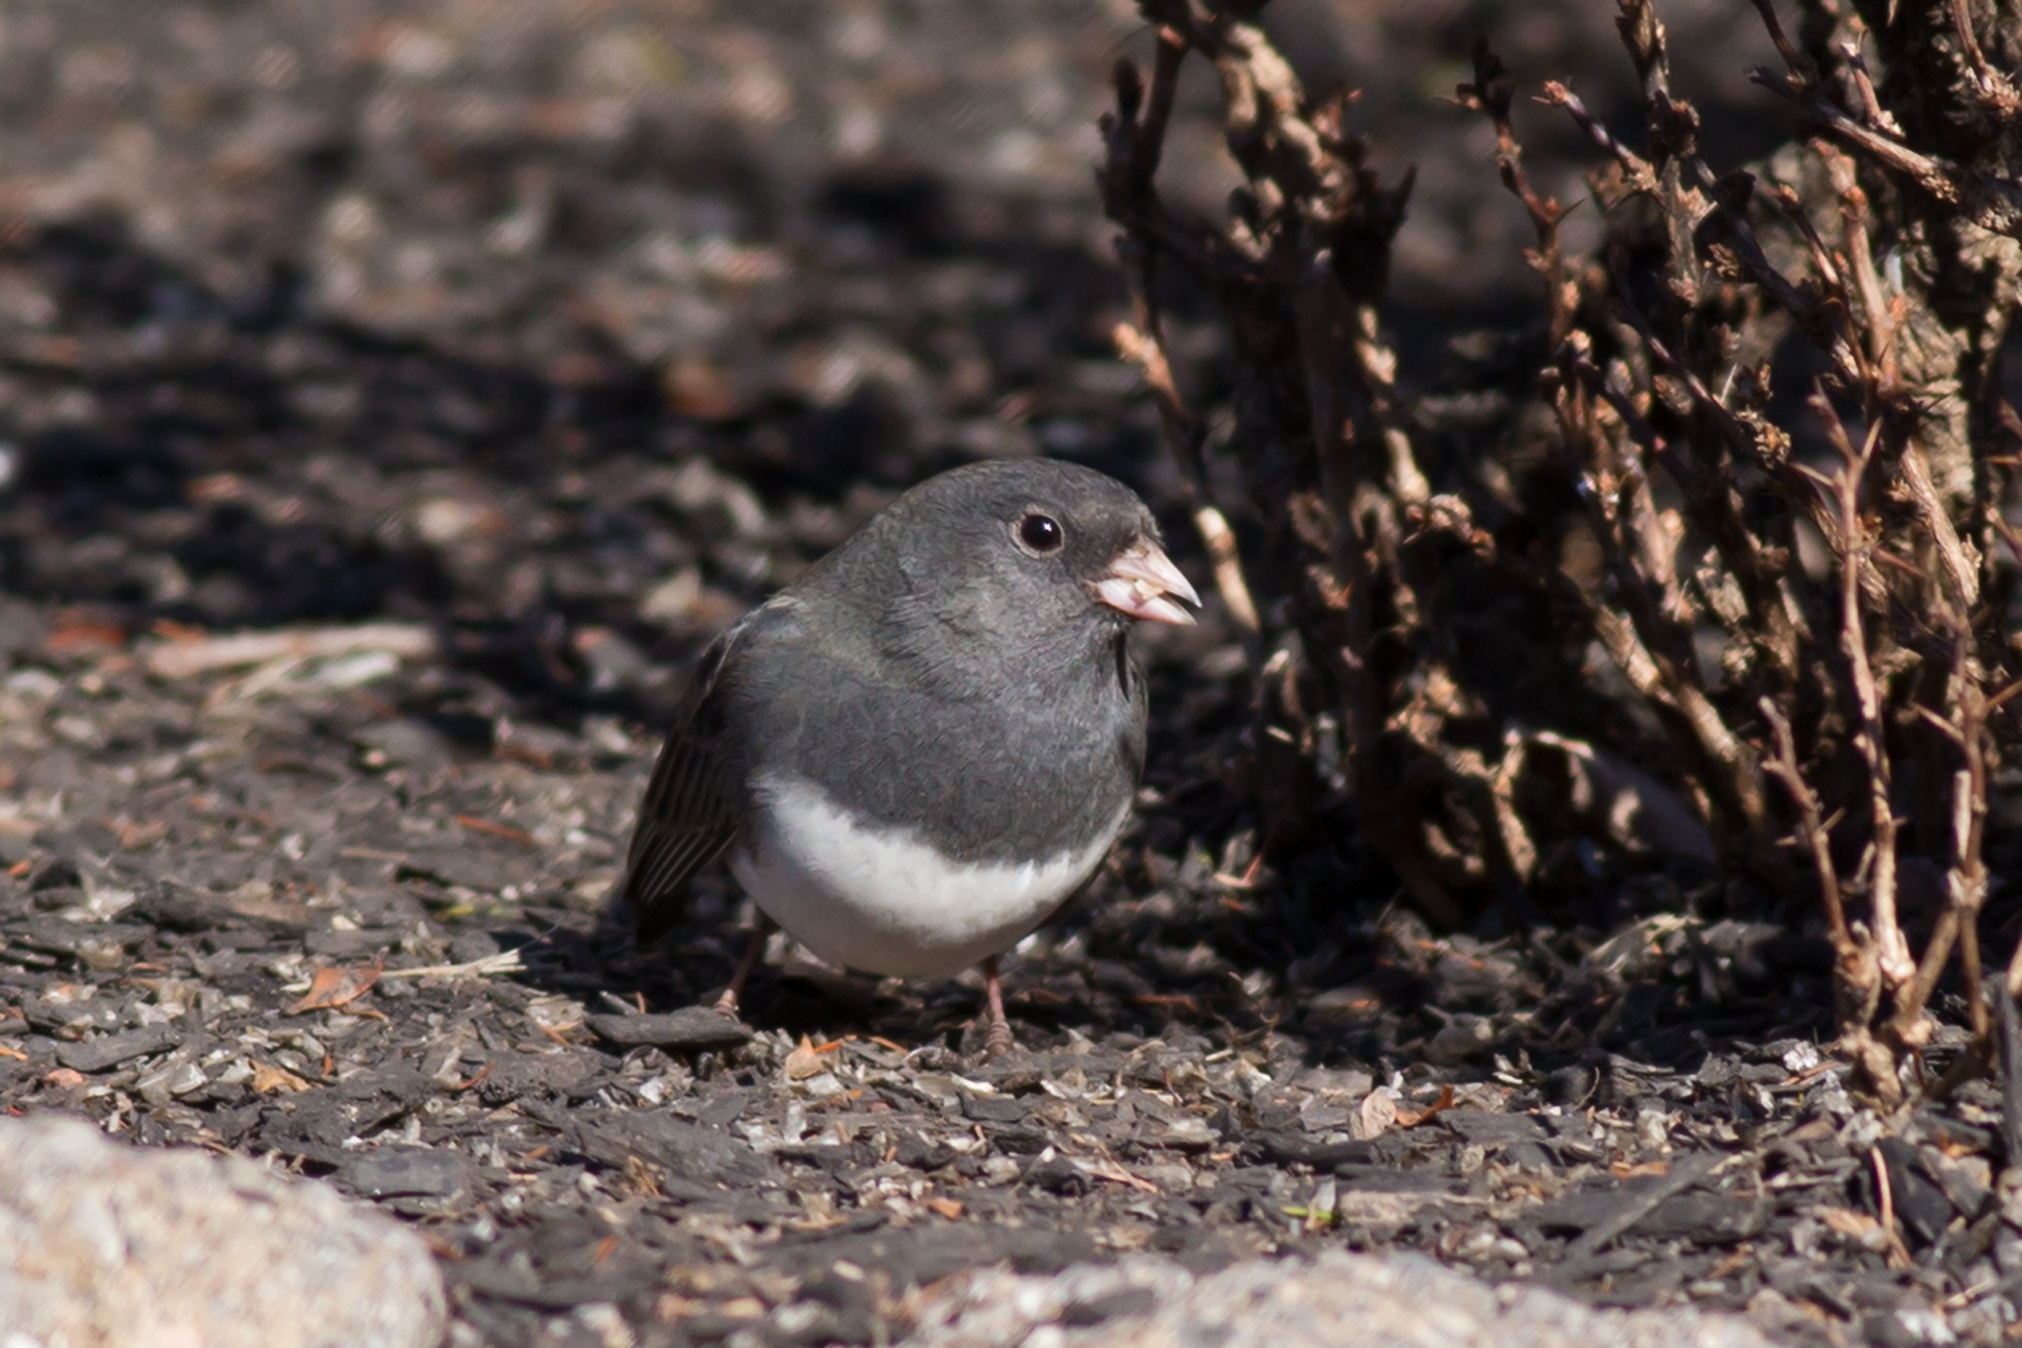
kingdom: Animalia
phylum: Chordata
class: Aves
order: Passeriformes
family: Passerellidae
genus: Junco
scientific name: Junco hyemalis
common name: Dark-eyed junco
